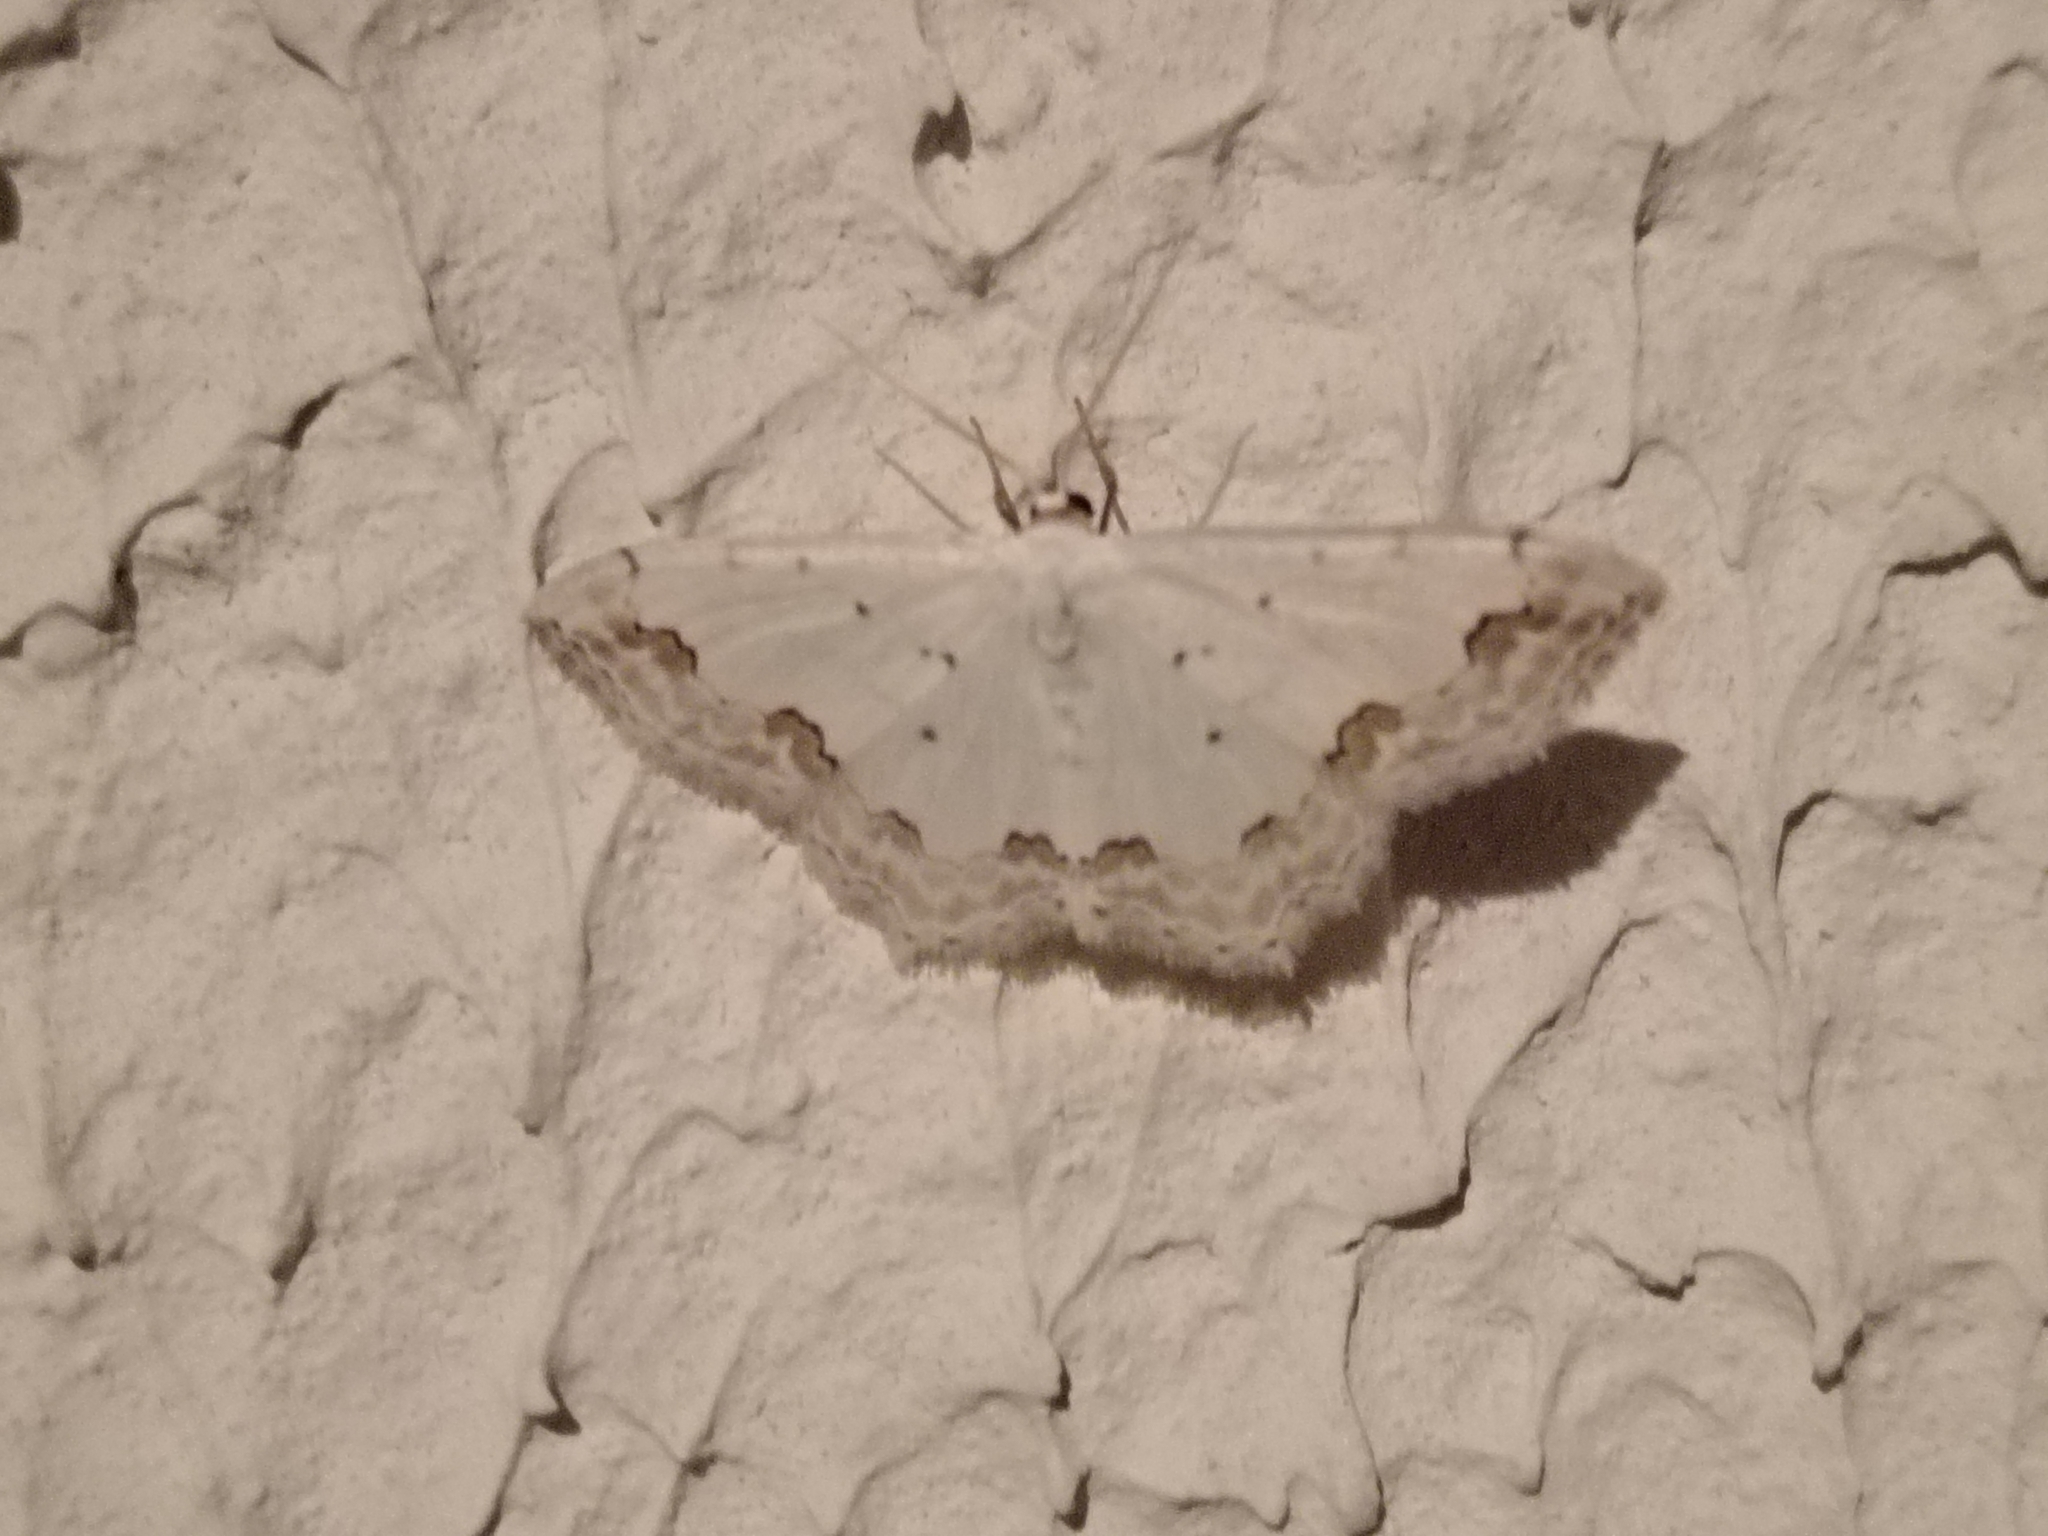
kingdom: Animalia
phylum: Arthropoda
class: Insecta
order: Lepidoptera
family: Geometridae
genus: Scopula
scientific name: Scopula ornata
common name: Lace border
